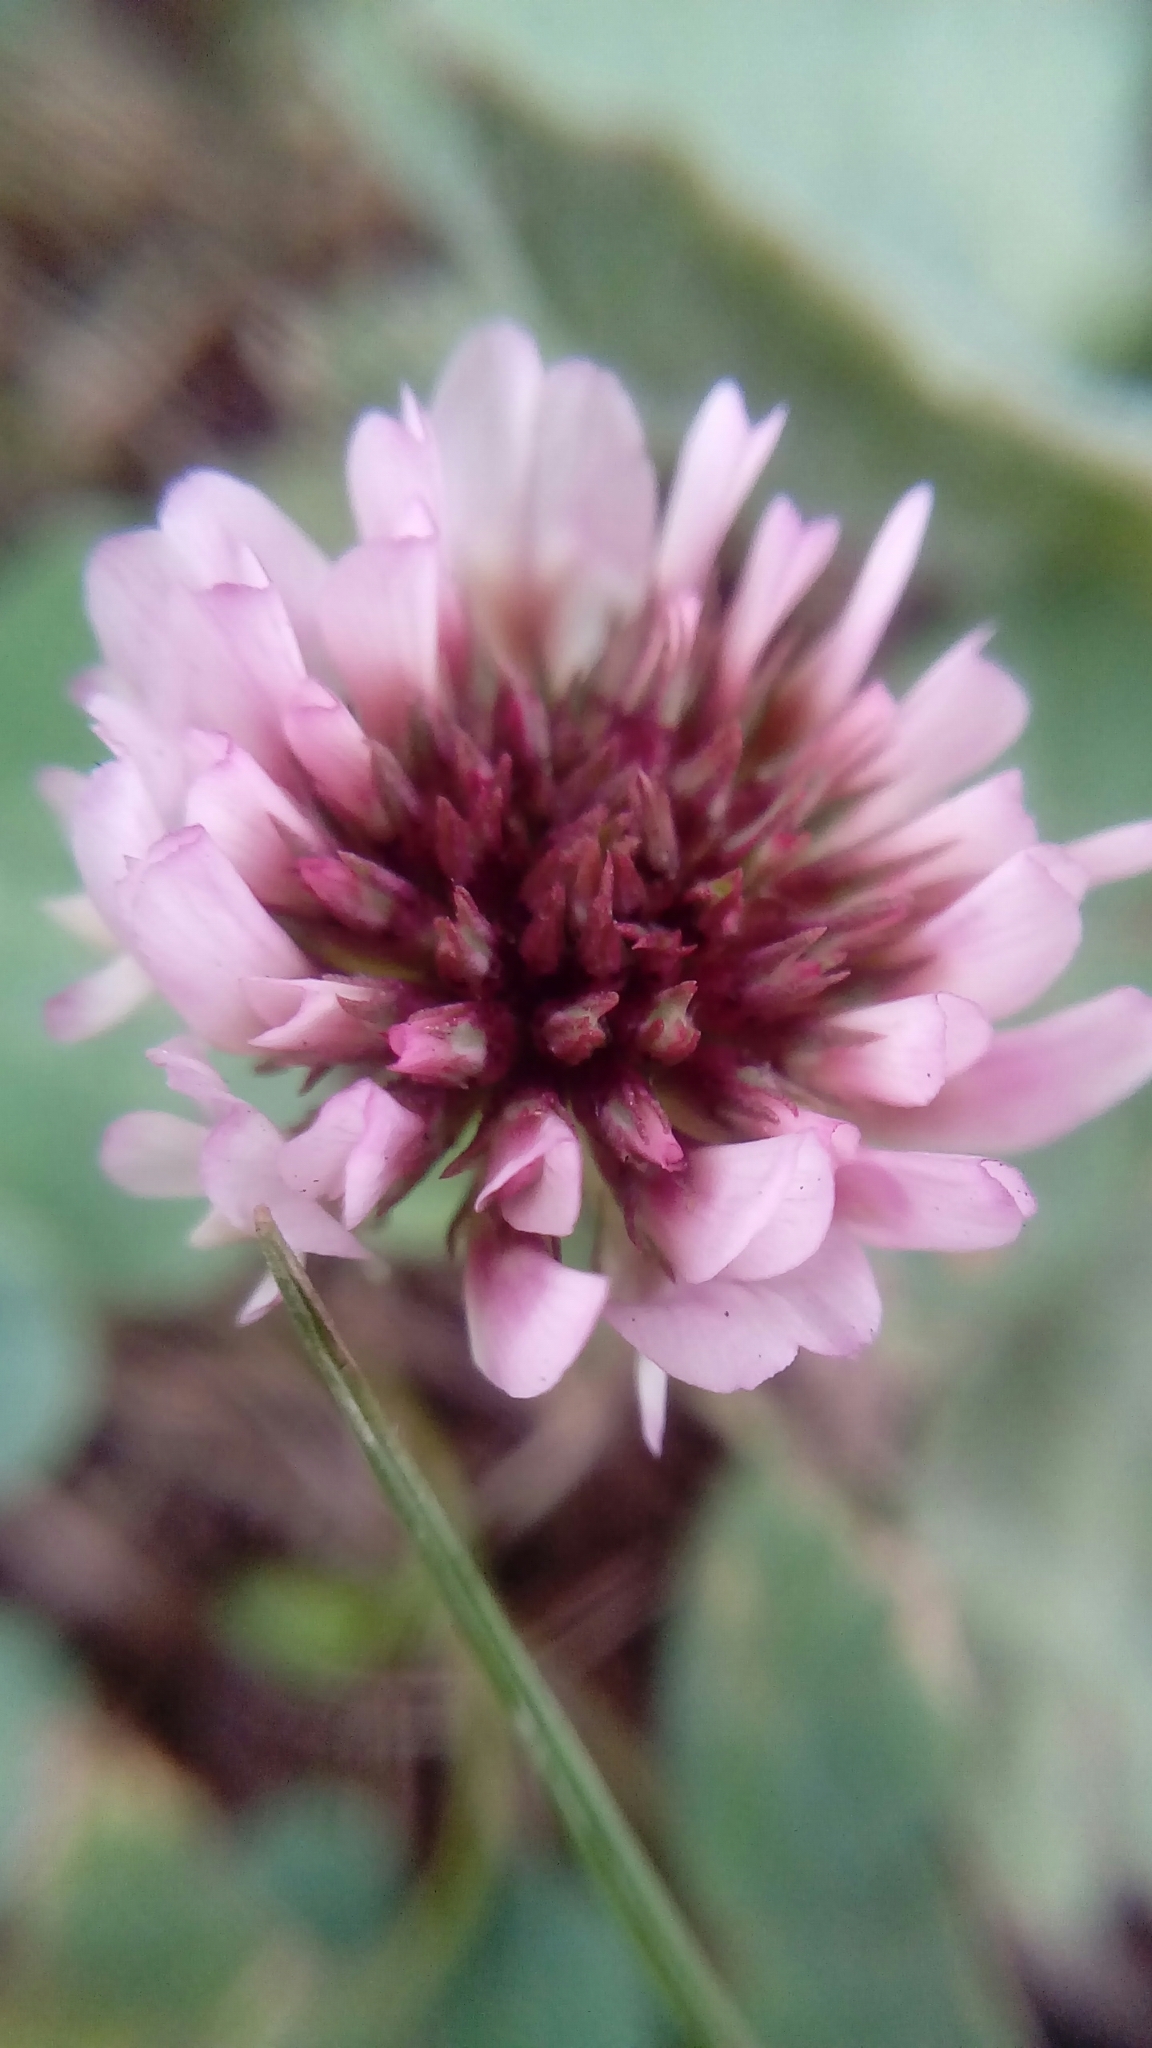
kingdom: Plantae
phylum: Tracheophyta
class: Magnoliopsida
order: Fabales
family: Fabaceae
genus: Trifolium
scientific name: Trifolium repens
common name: White clover
